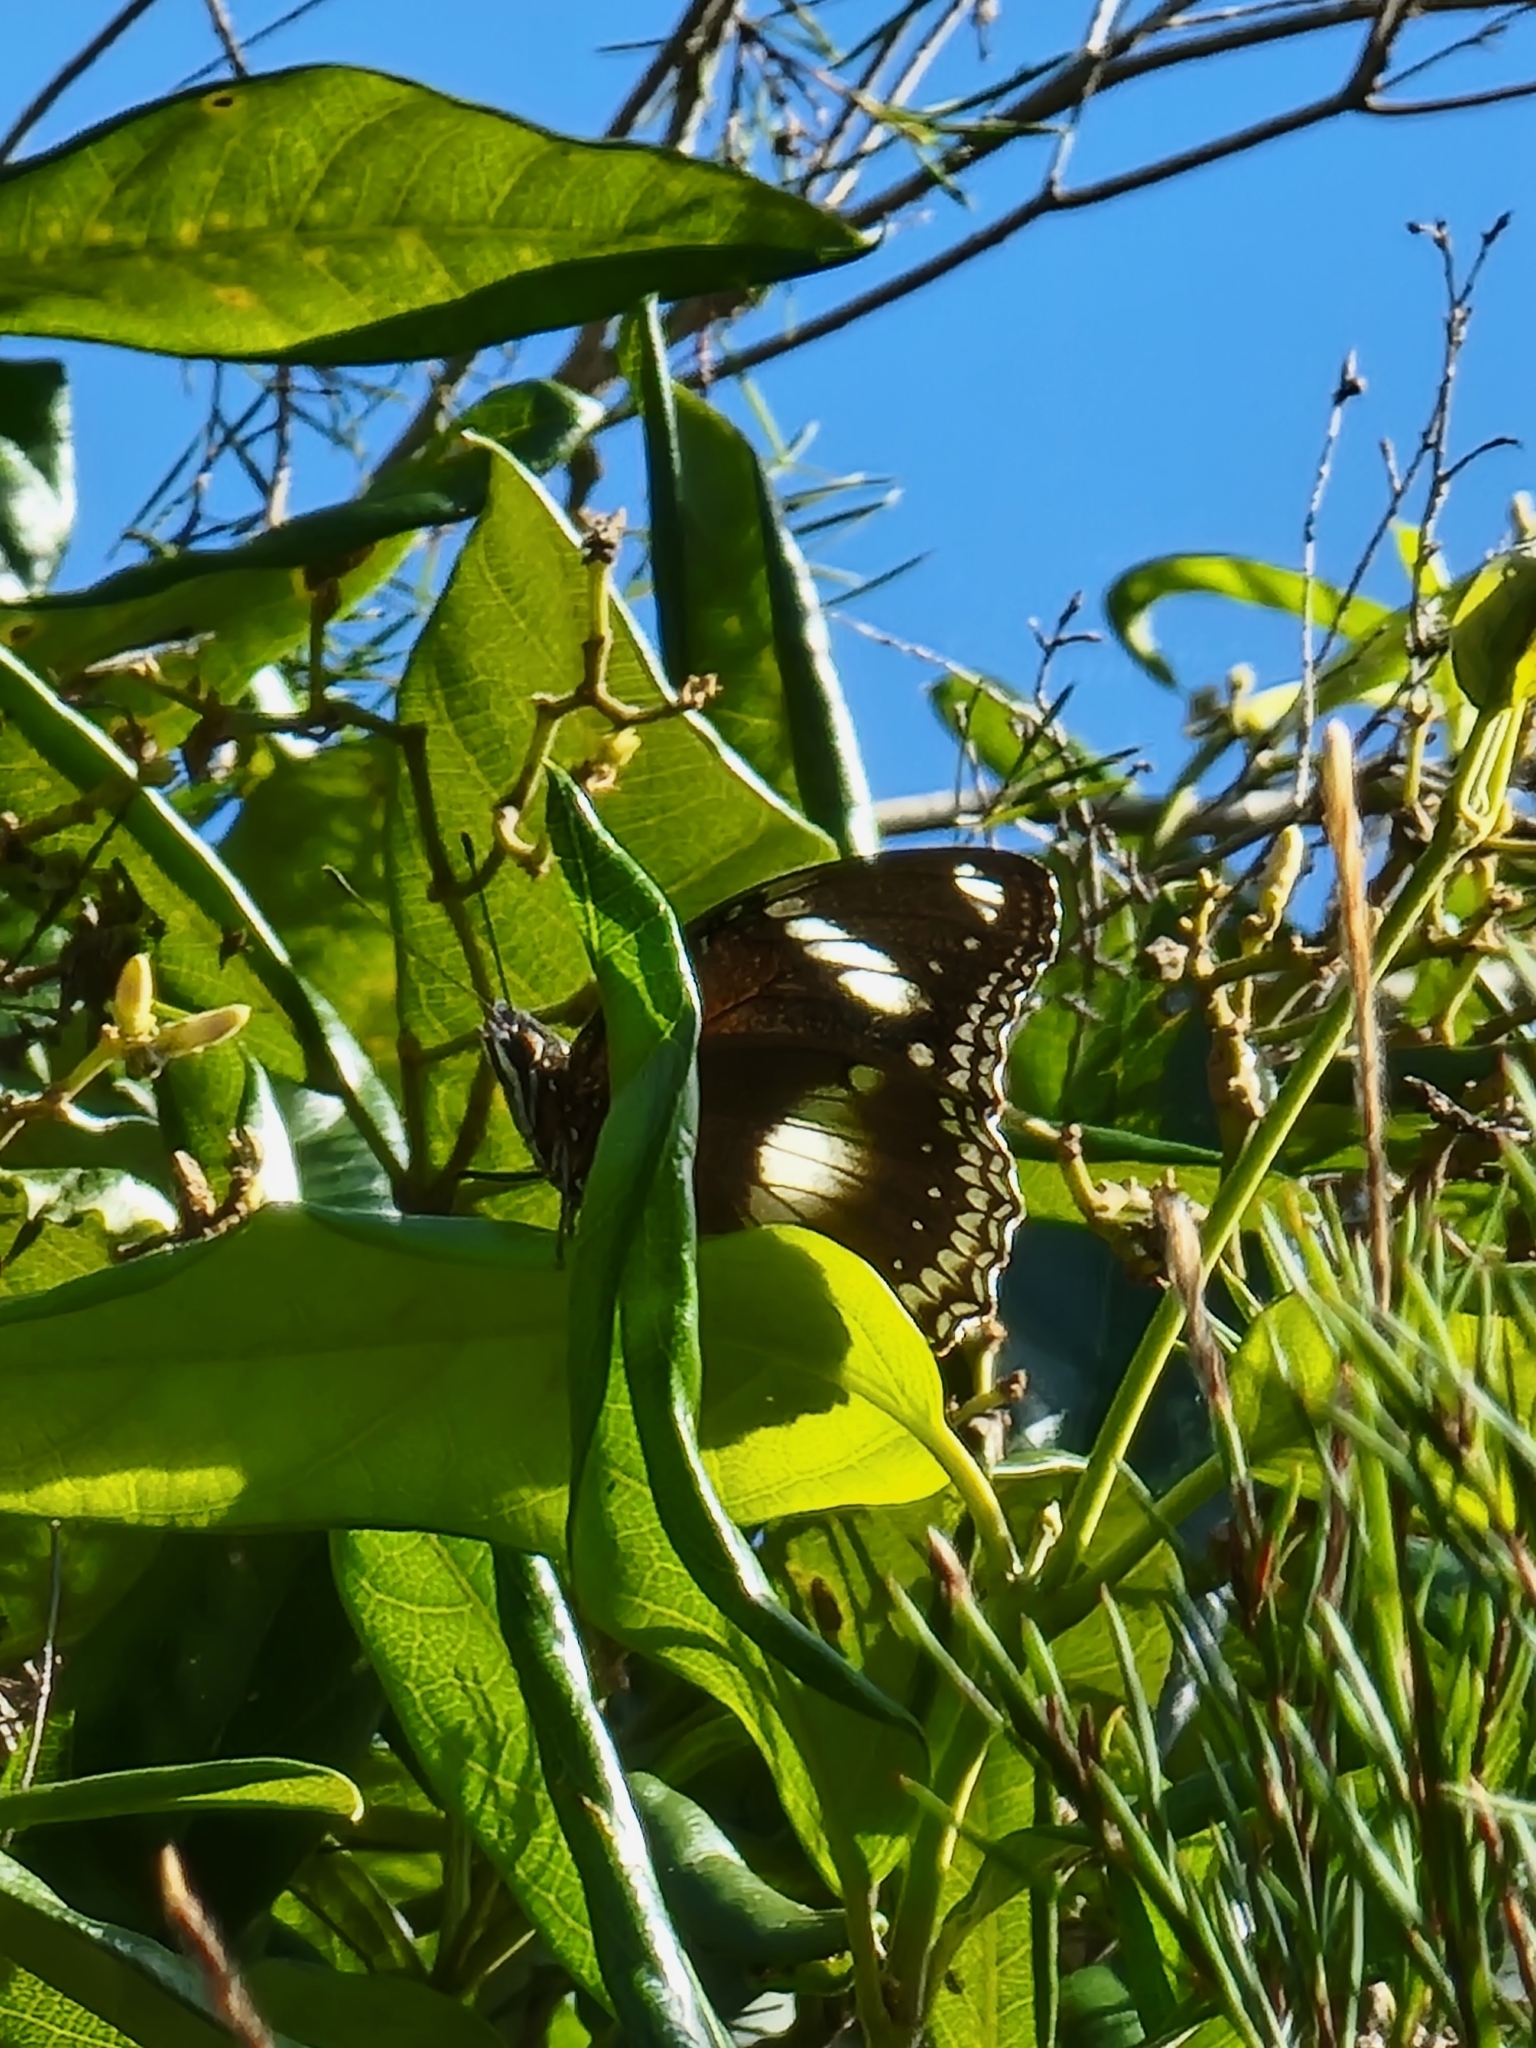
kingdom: Animalia
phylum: Arthropoda
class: Insecta
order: Lepidoptera
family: Nymphalidae
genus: Hypolimnas
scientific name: Hypolimnas bolina
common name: Great eggfly
